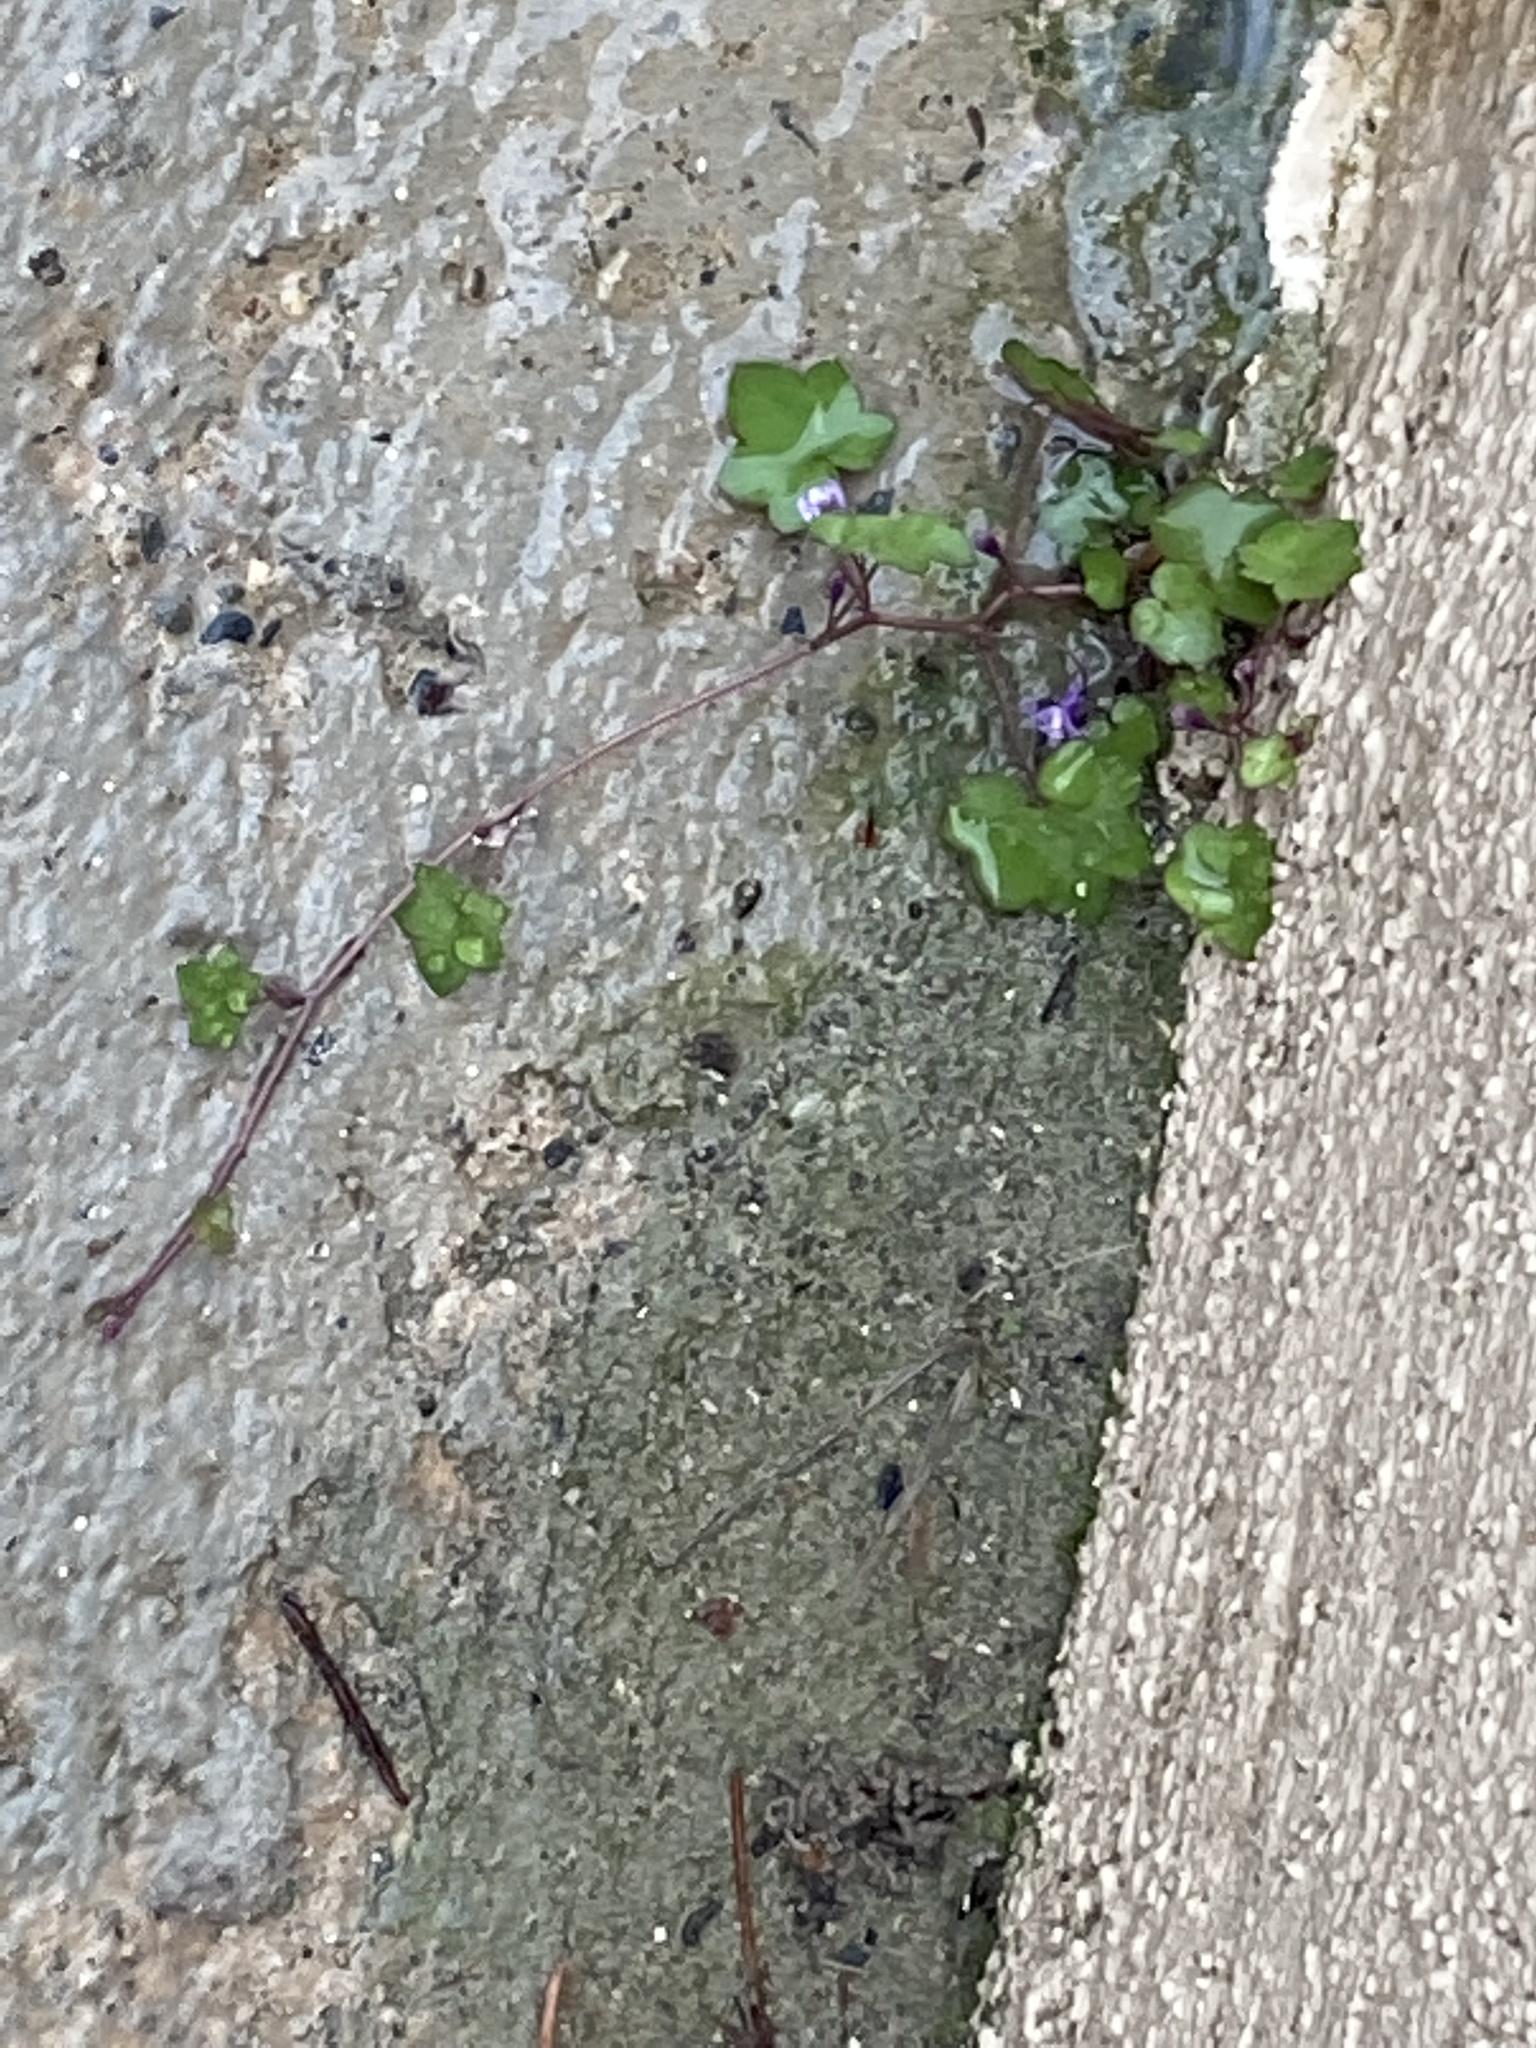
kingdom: Plantae
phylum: Tracheophyta
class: Magnoliopsida
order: Lamiales
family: Plantaginaceae
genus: Cymbalaria
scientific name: Cymbalaria muralis
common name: Ivy-leaved toadflax
